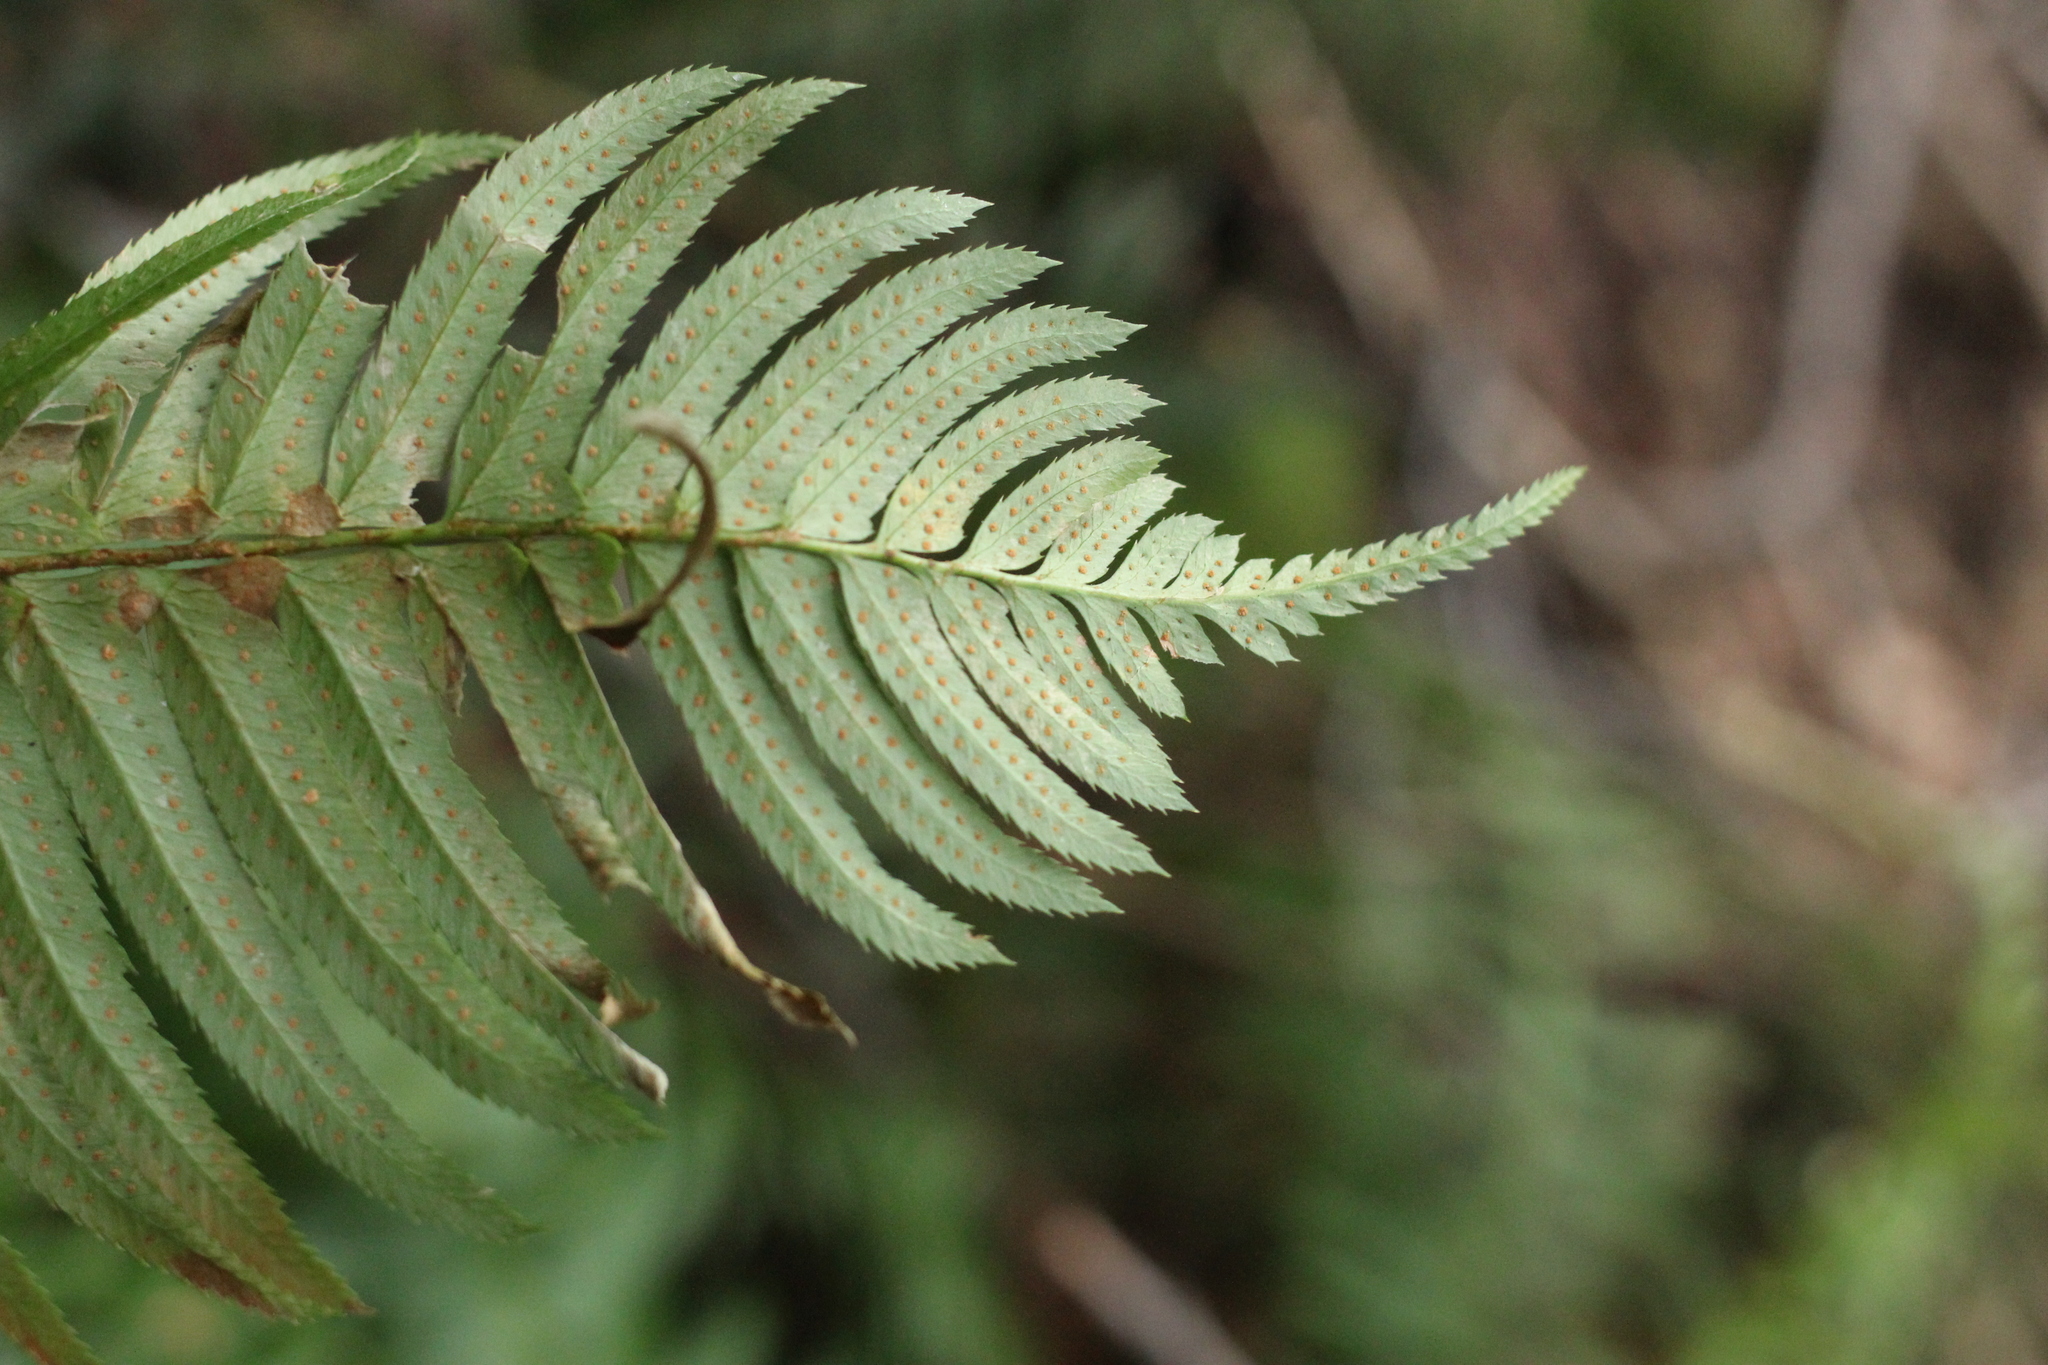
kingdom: Plantae
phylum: Tracheophyta
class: Polypodiopsida
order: Polypodiales
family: Dryopteridaceae
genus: Polystichum
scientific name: Polystichum munitum
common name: Western sword-fern
